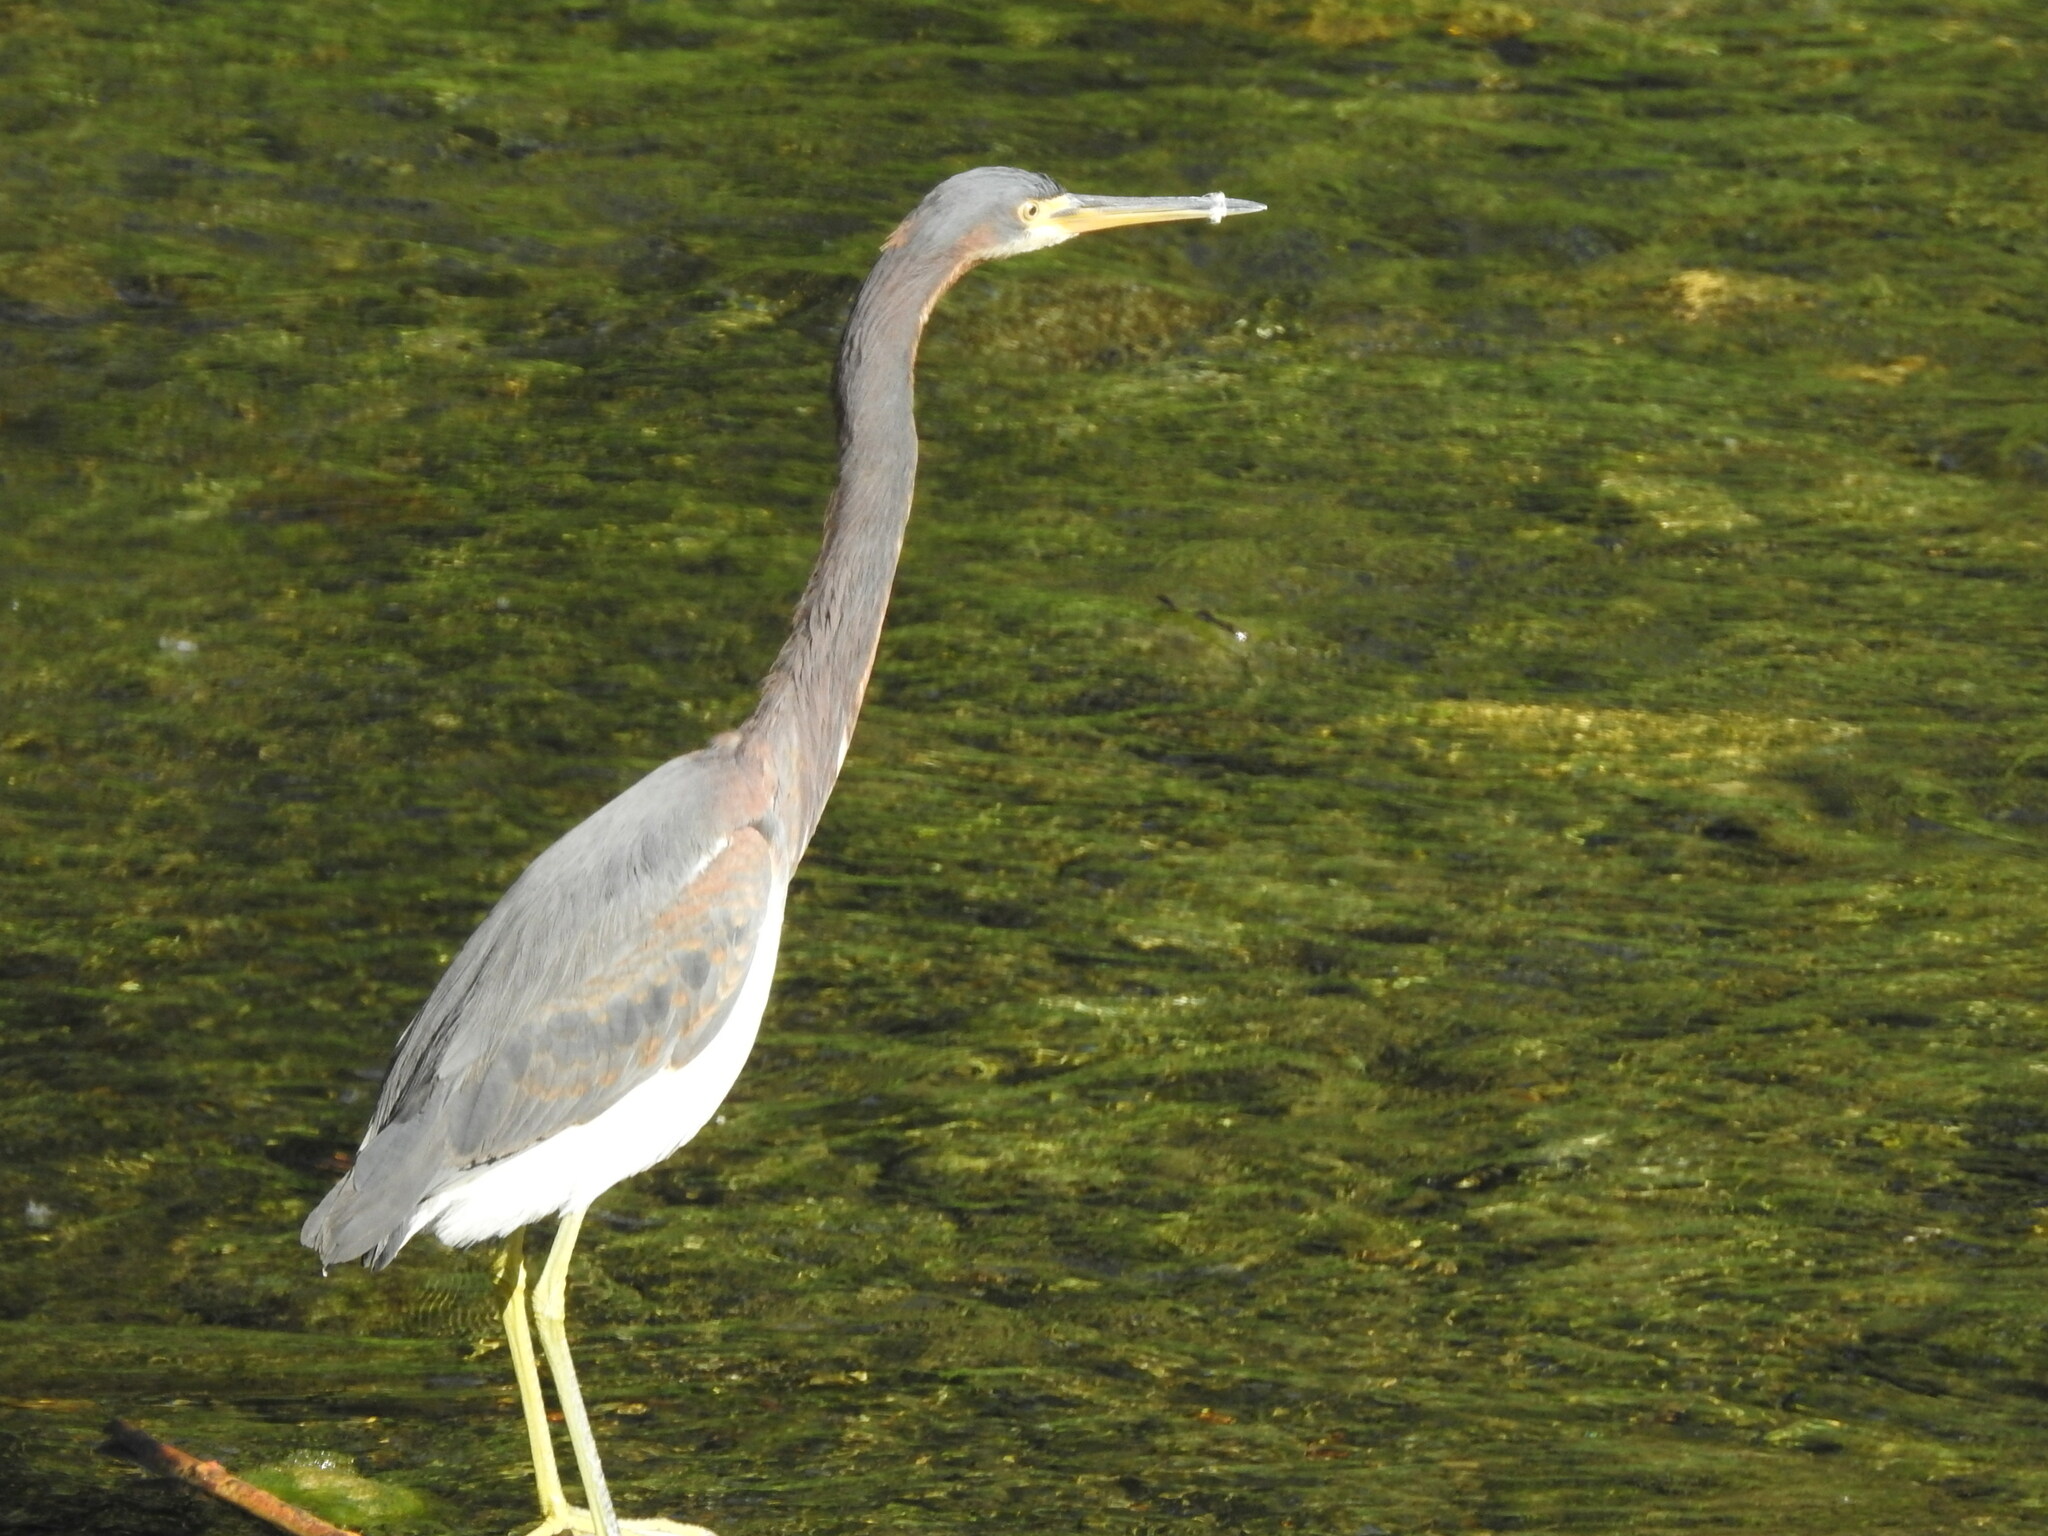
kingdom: Animalia
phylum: Chordata
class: Aves
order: Pelecaniformes
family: Ardeidae
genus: Egretta
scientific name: Egretta tricolor
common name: Tricolored heron
